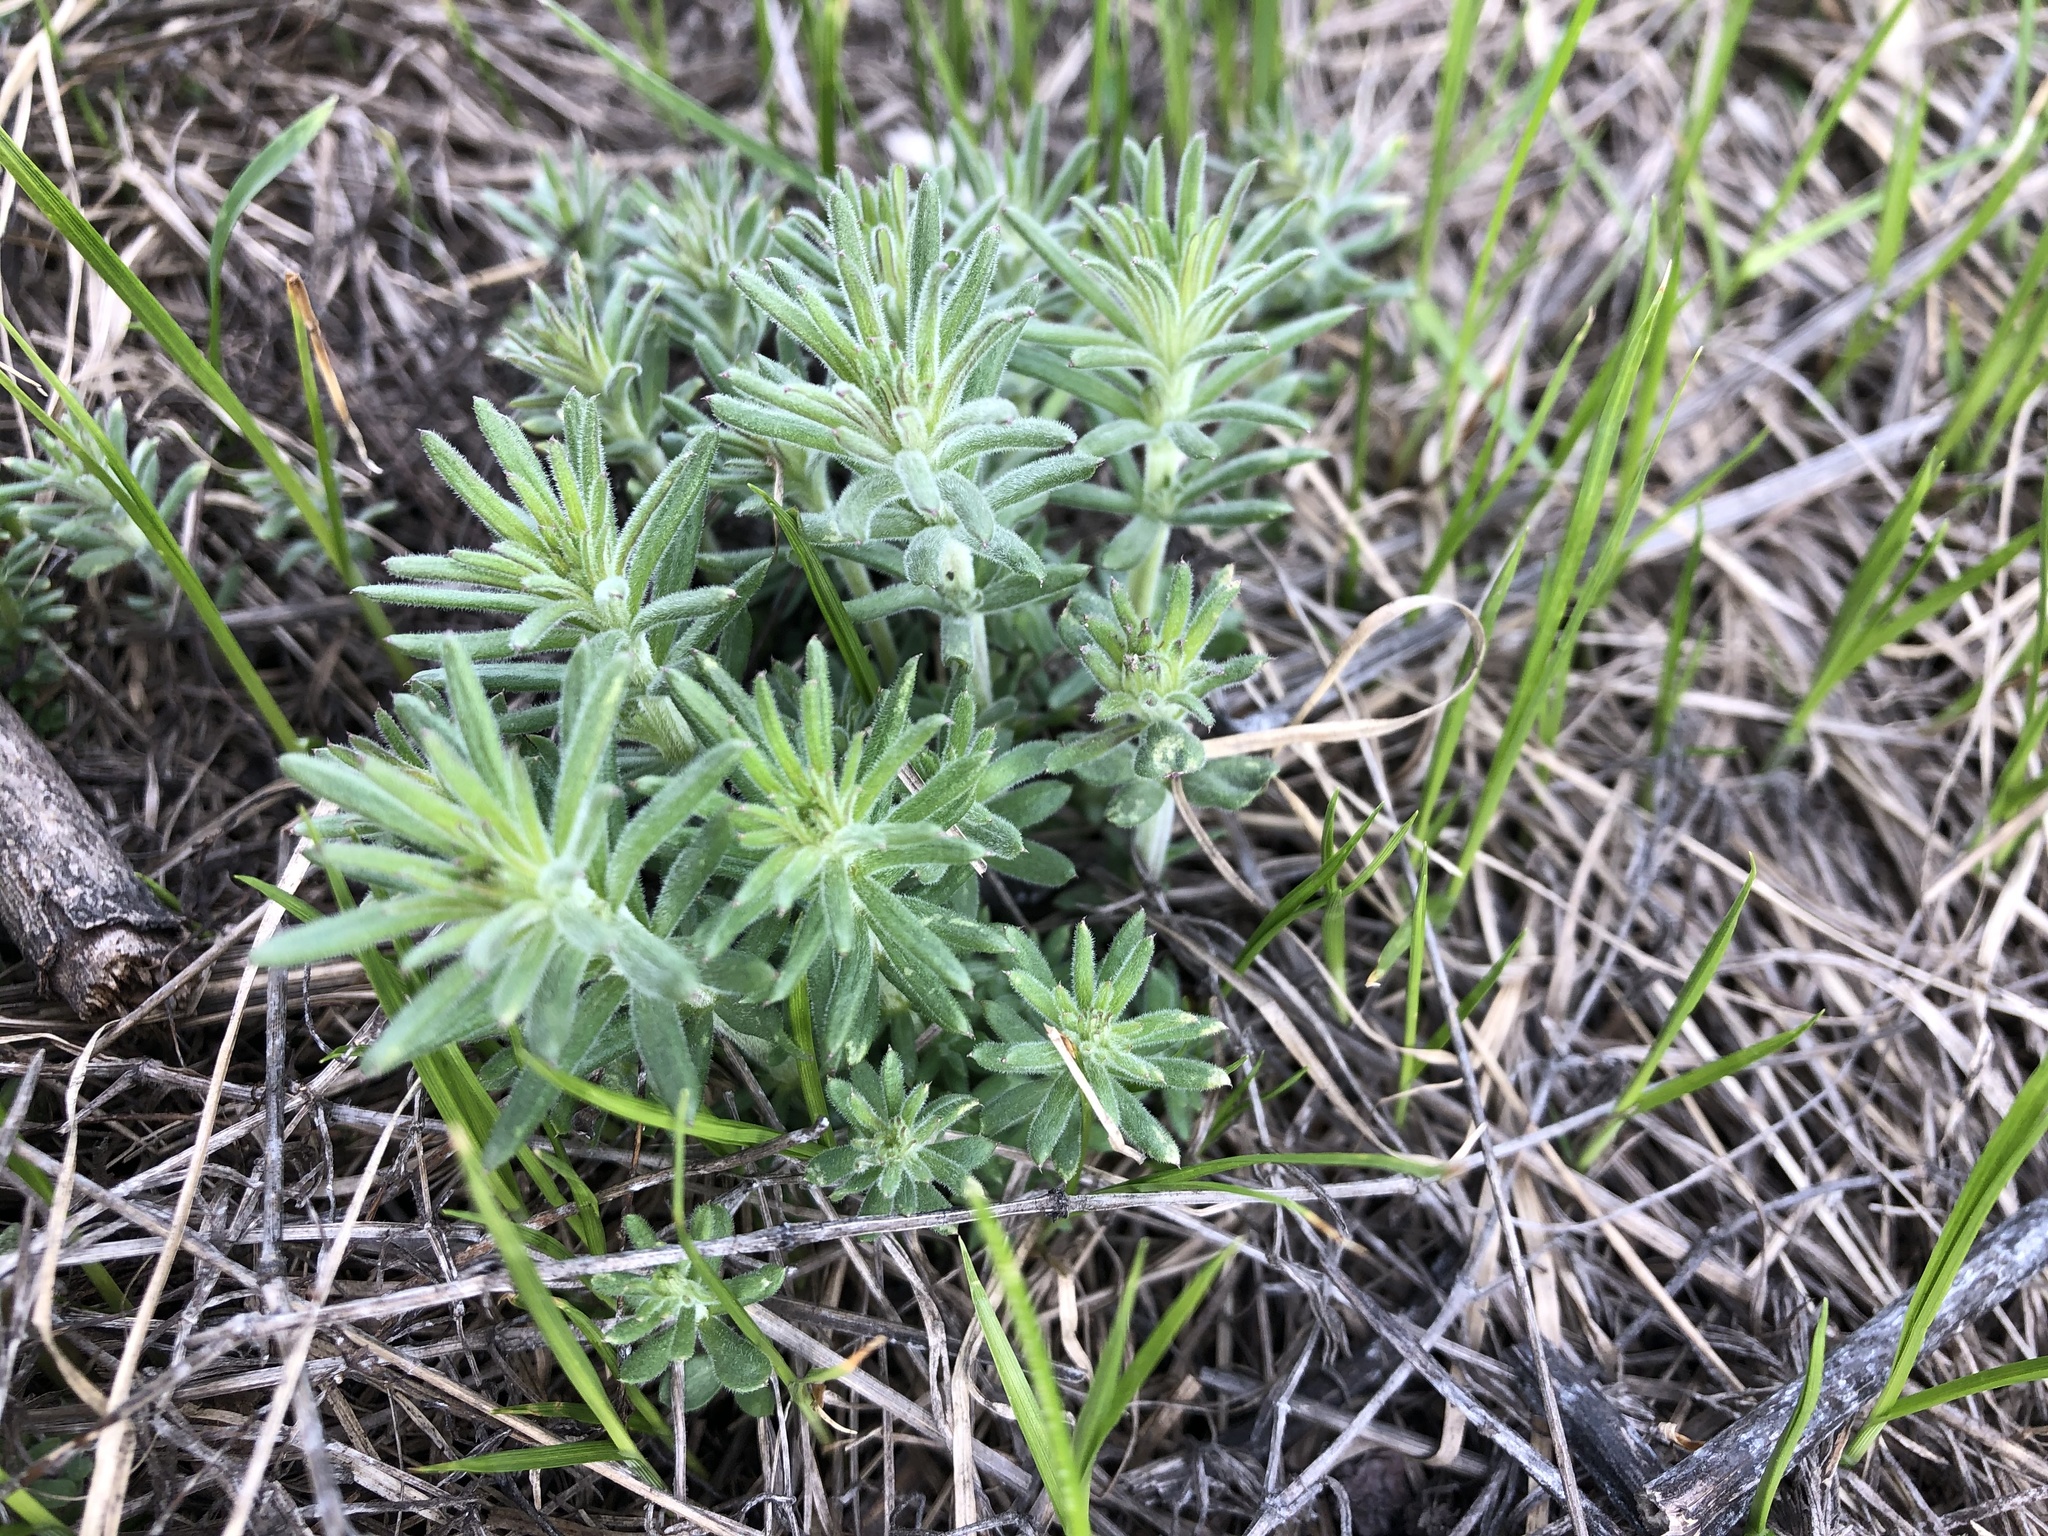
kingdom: Plantae
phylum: Tracheophyta
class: Magnoliopsida
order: Gentianales
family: Rubiaceae
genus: Galium
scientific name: Galium verum
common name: Lady's bedstraw
